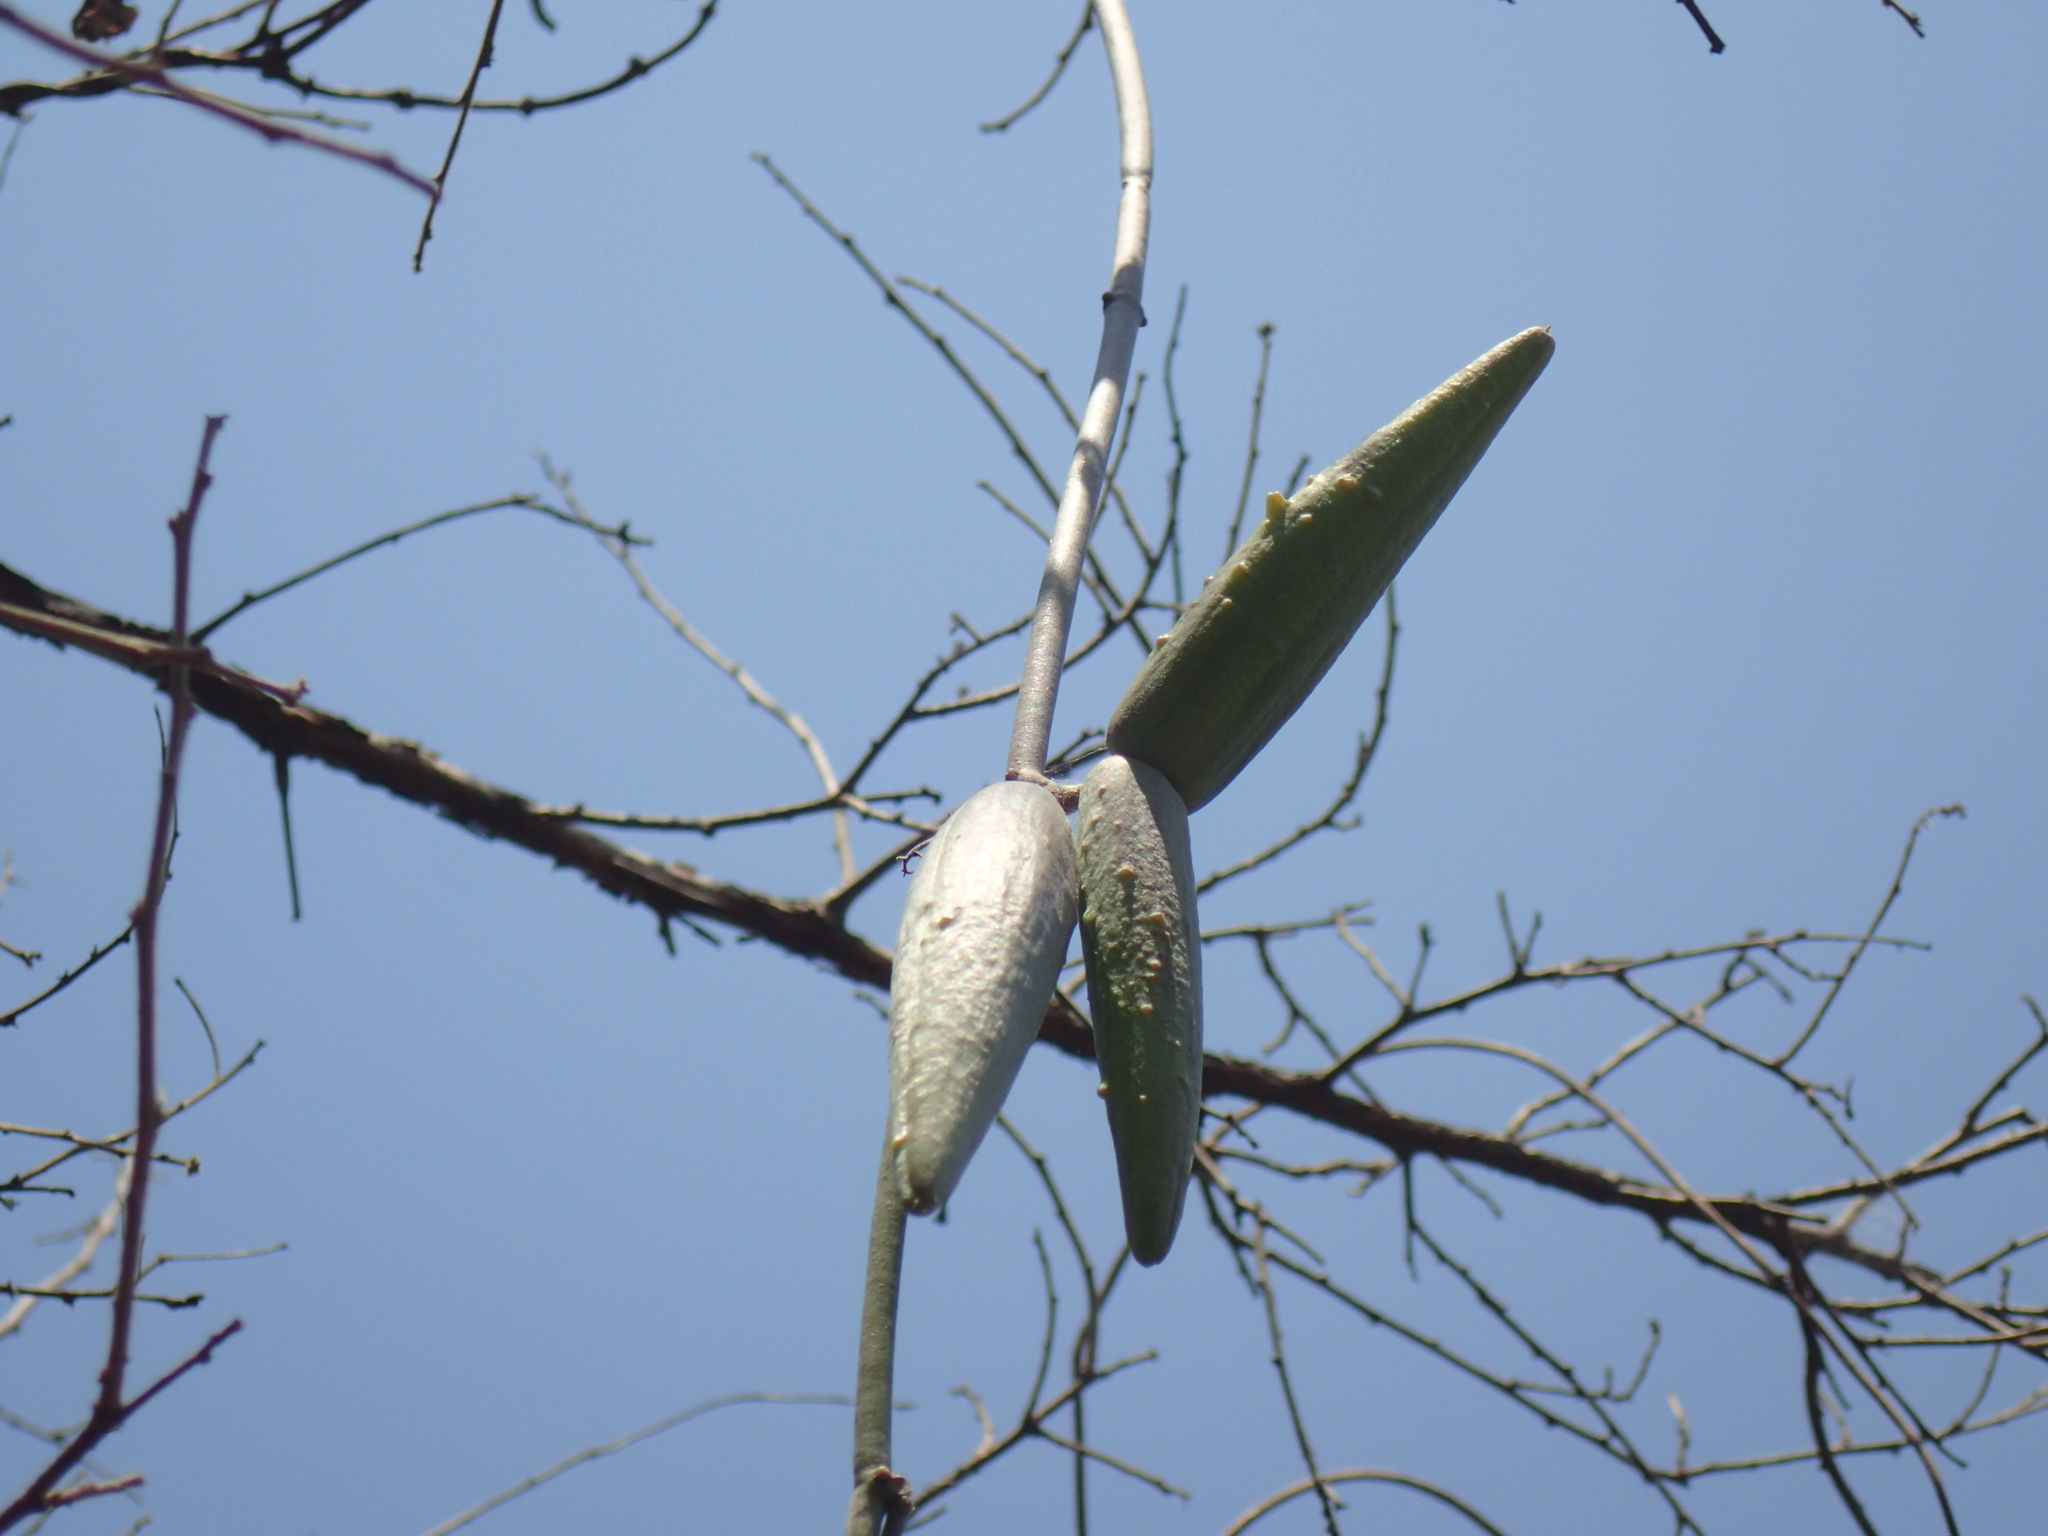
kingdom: Plantae
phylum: Tracheophyta
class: Magnoliopsida
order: Gentianales
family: Apocynaceae
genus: Cynanchum
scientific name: Cynanchum viminale
